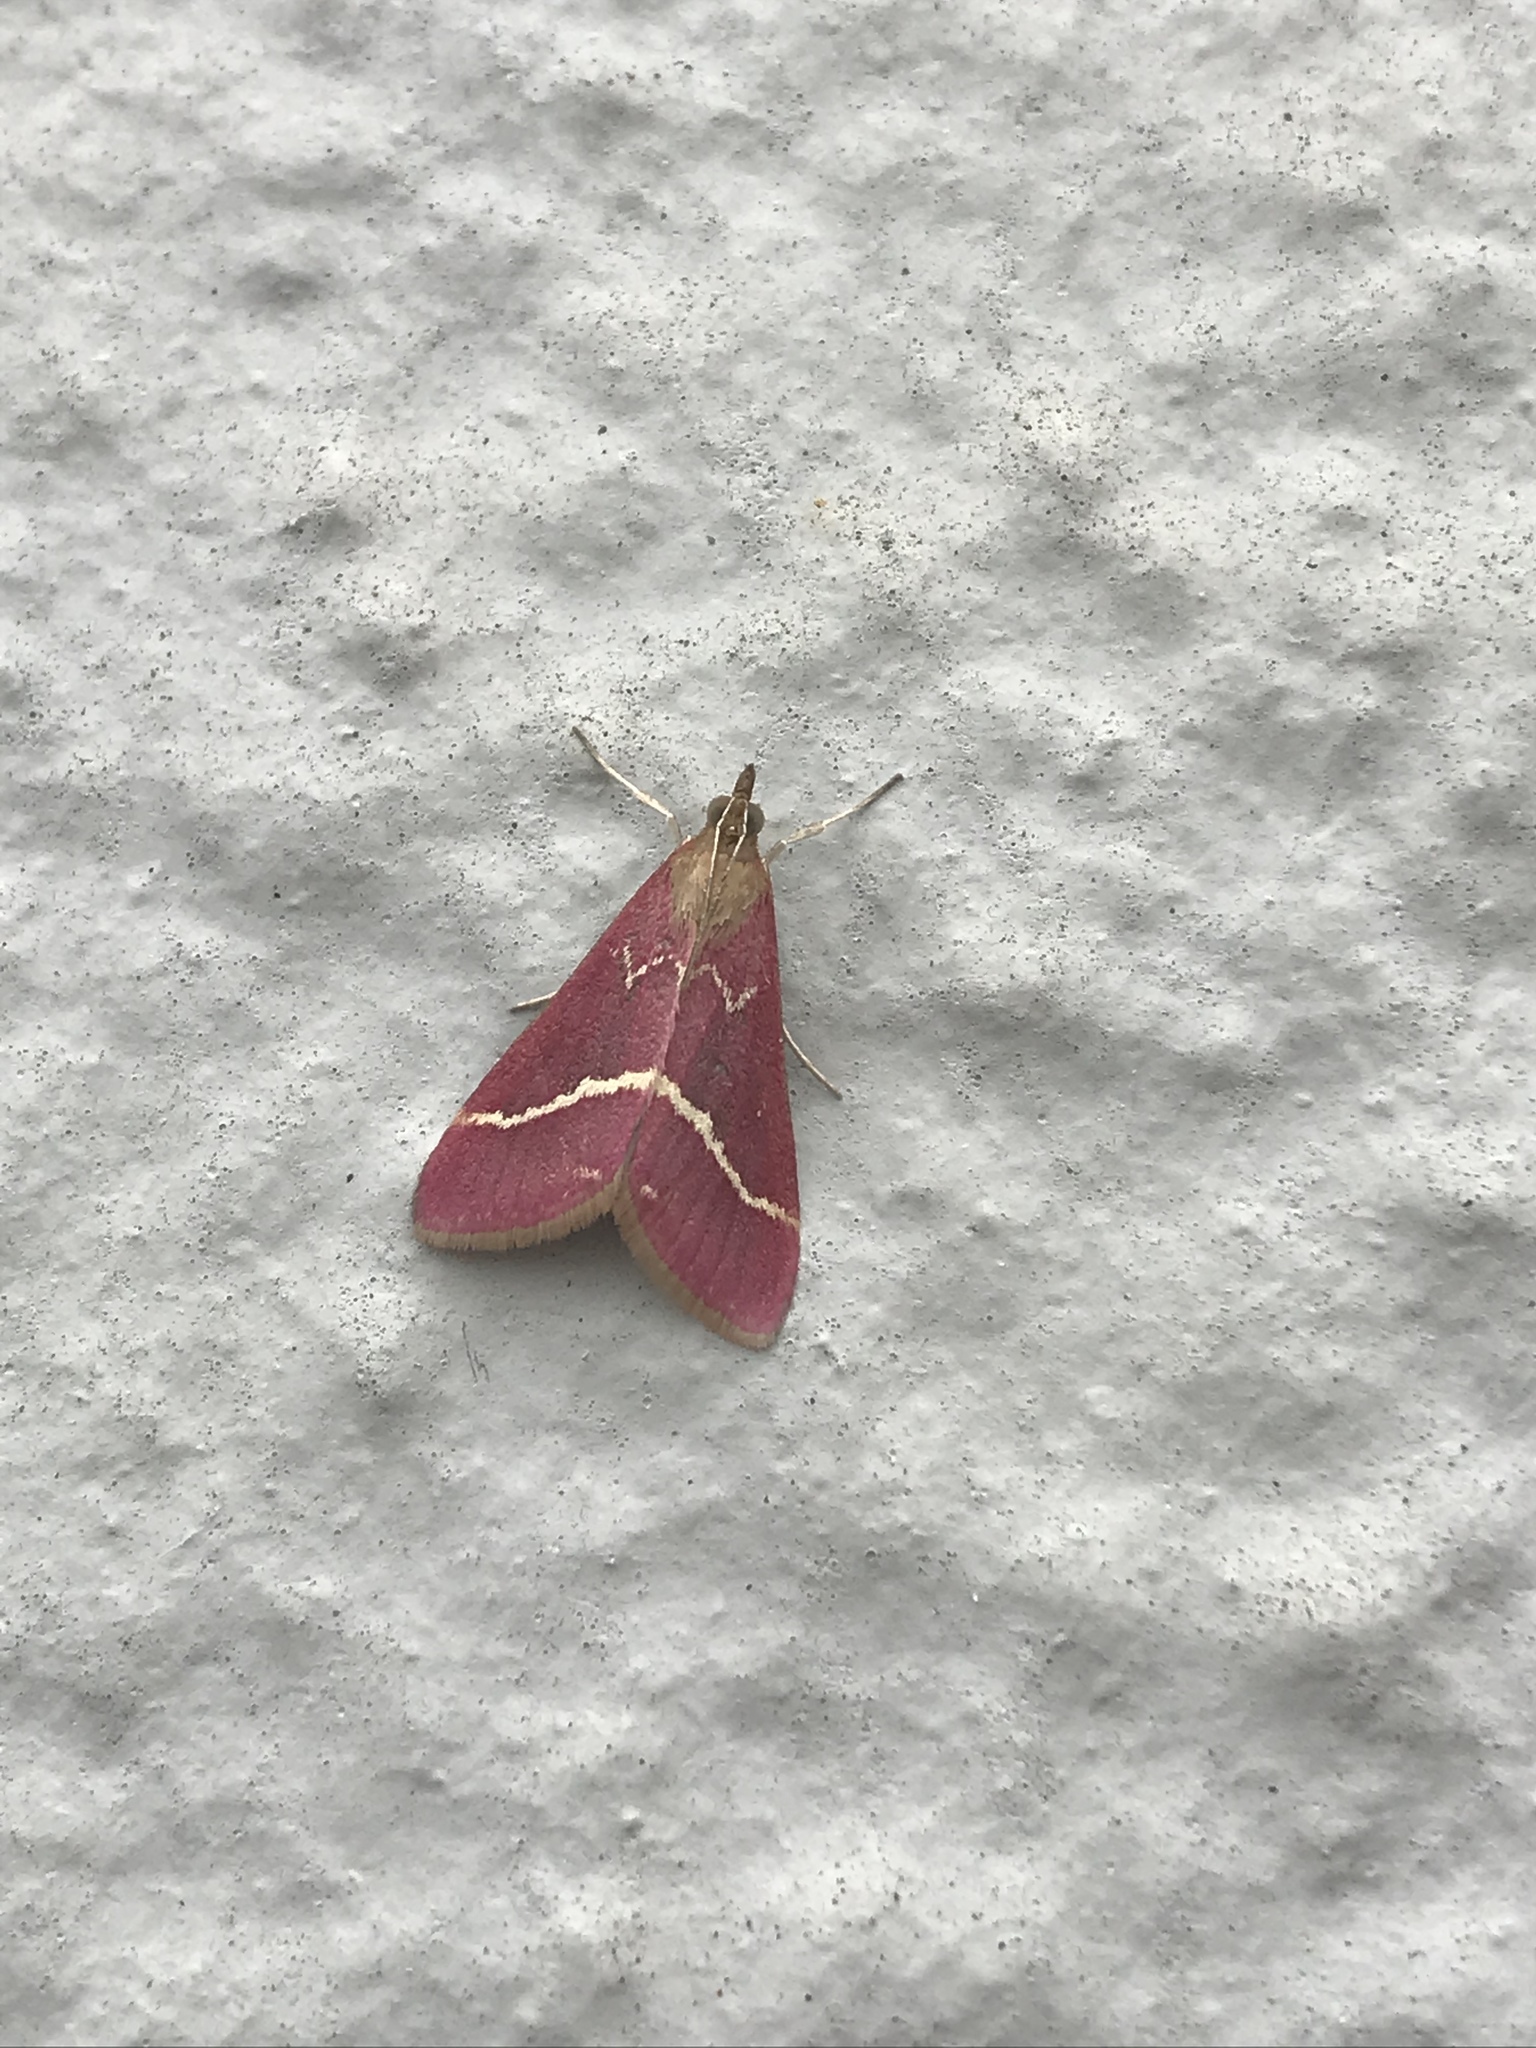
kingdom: Animalia
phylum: Arthropoda
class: Insecta
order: Lepidoptera
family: Crambidae
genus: Pyrausta
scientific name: Pyrausta volupialis
